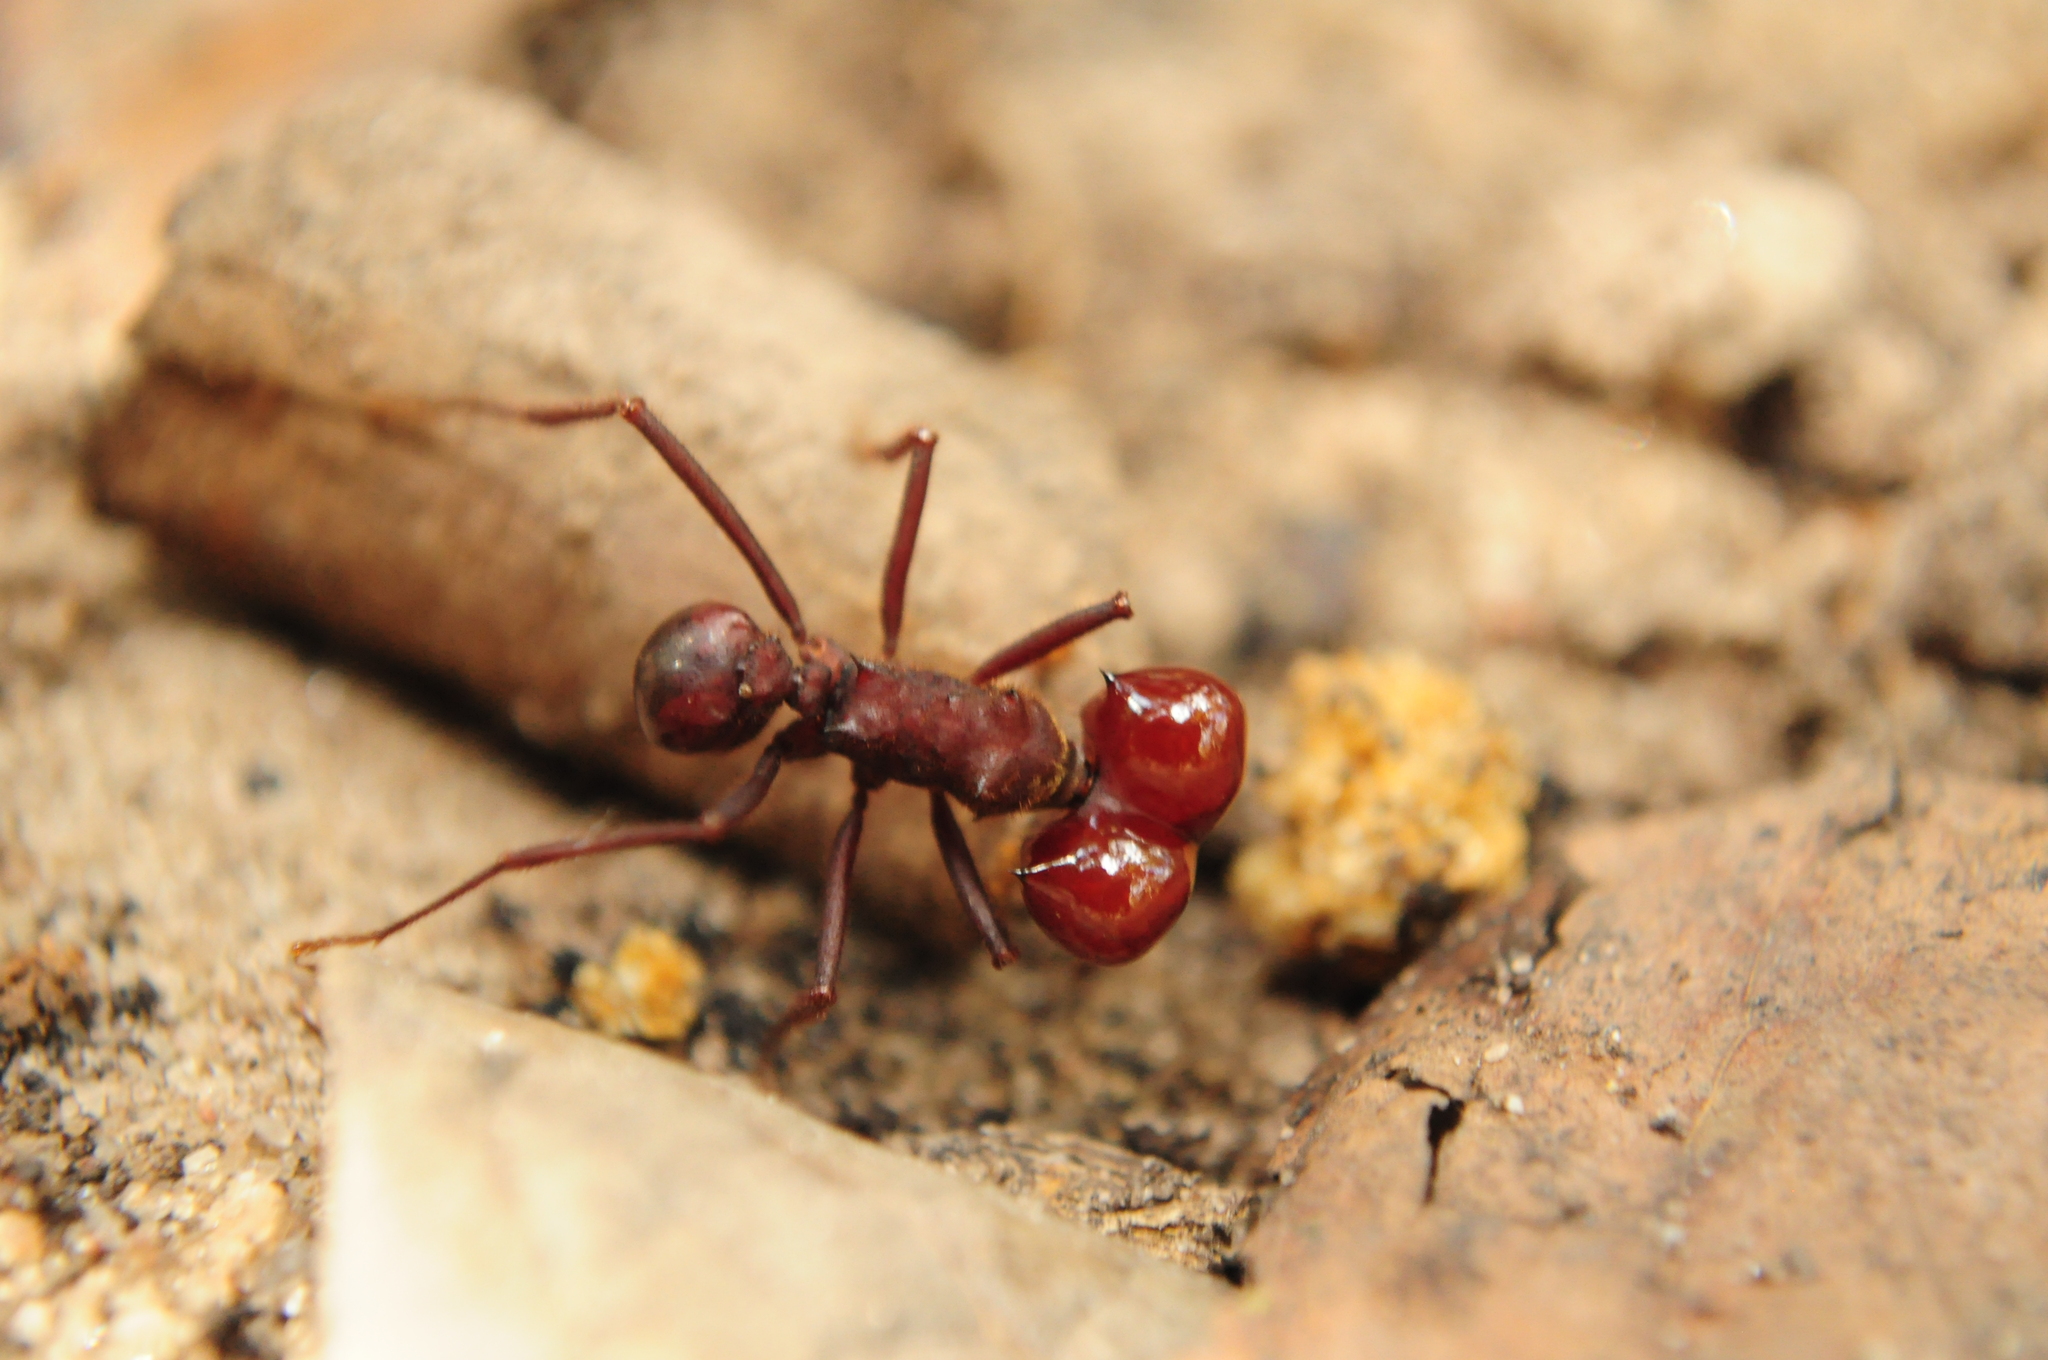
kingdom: Animalia
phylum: Arthropoda
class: Insecta
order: Hymenoptera
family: Formicidae
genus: Atta
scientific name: Atta laevigata
